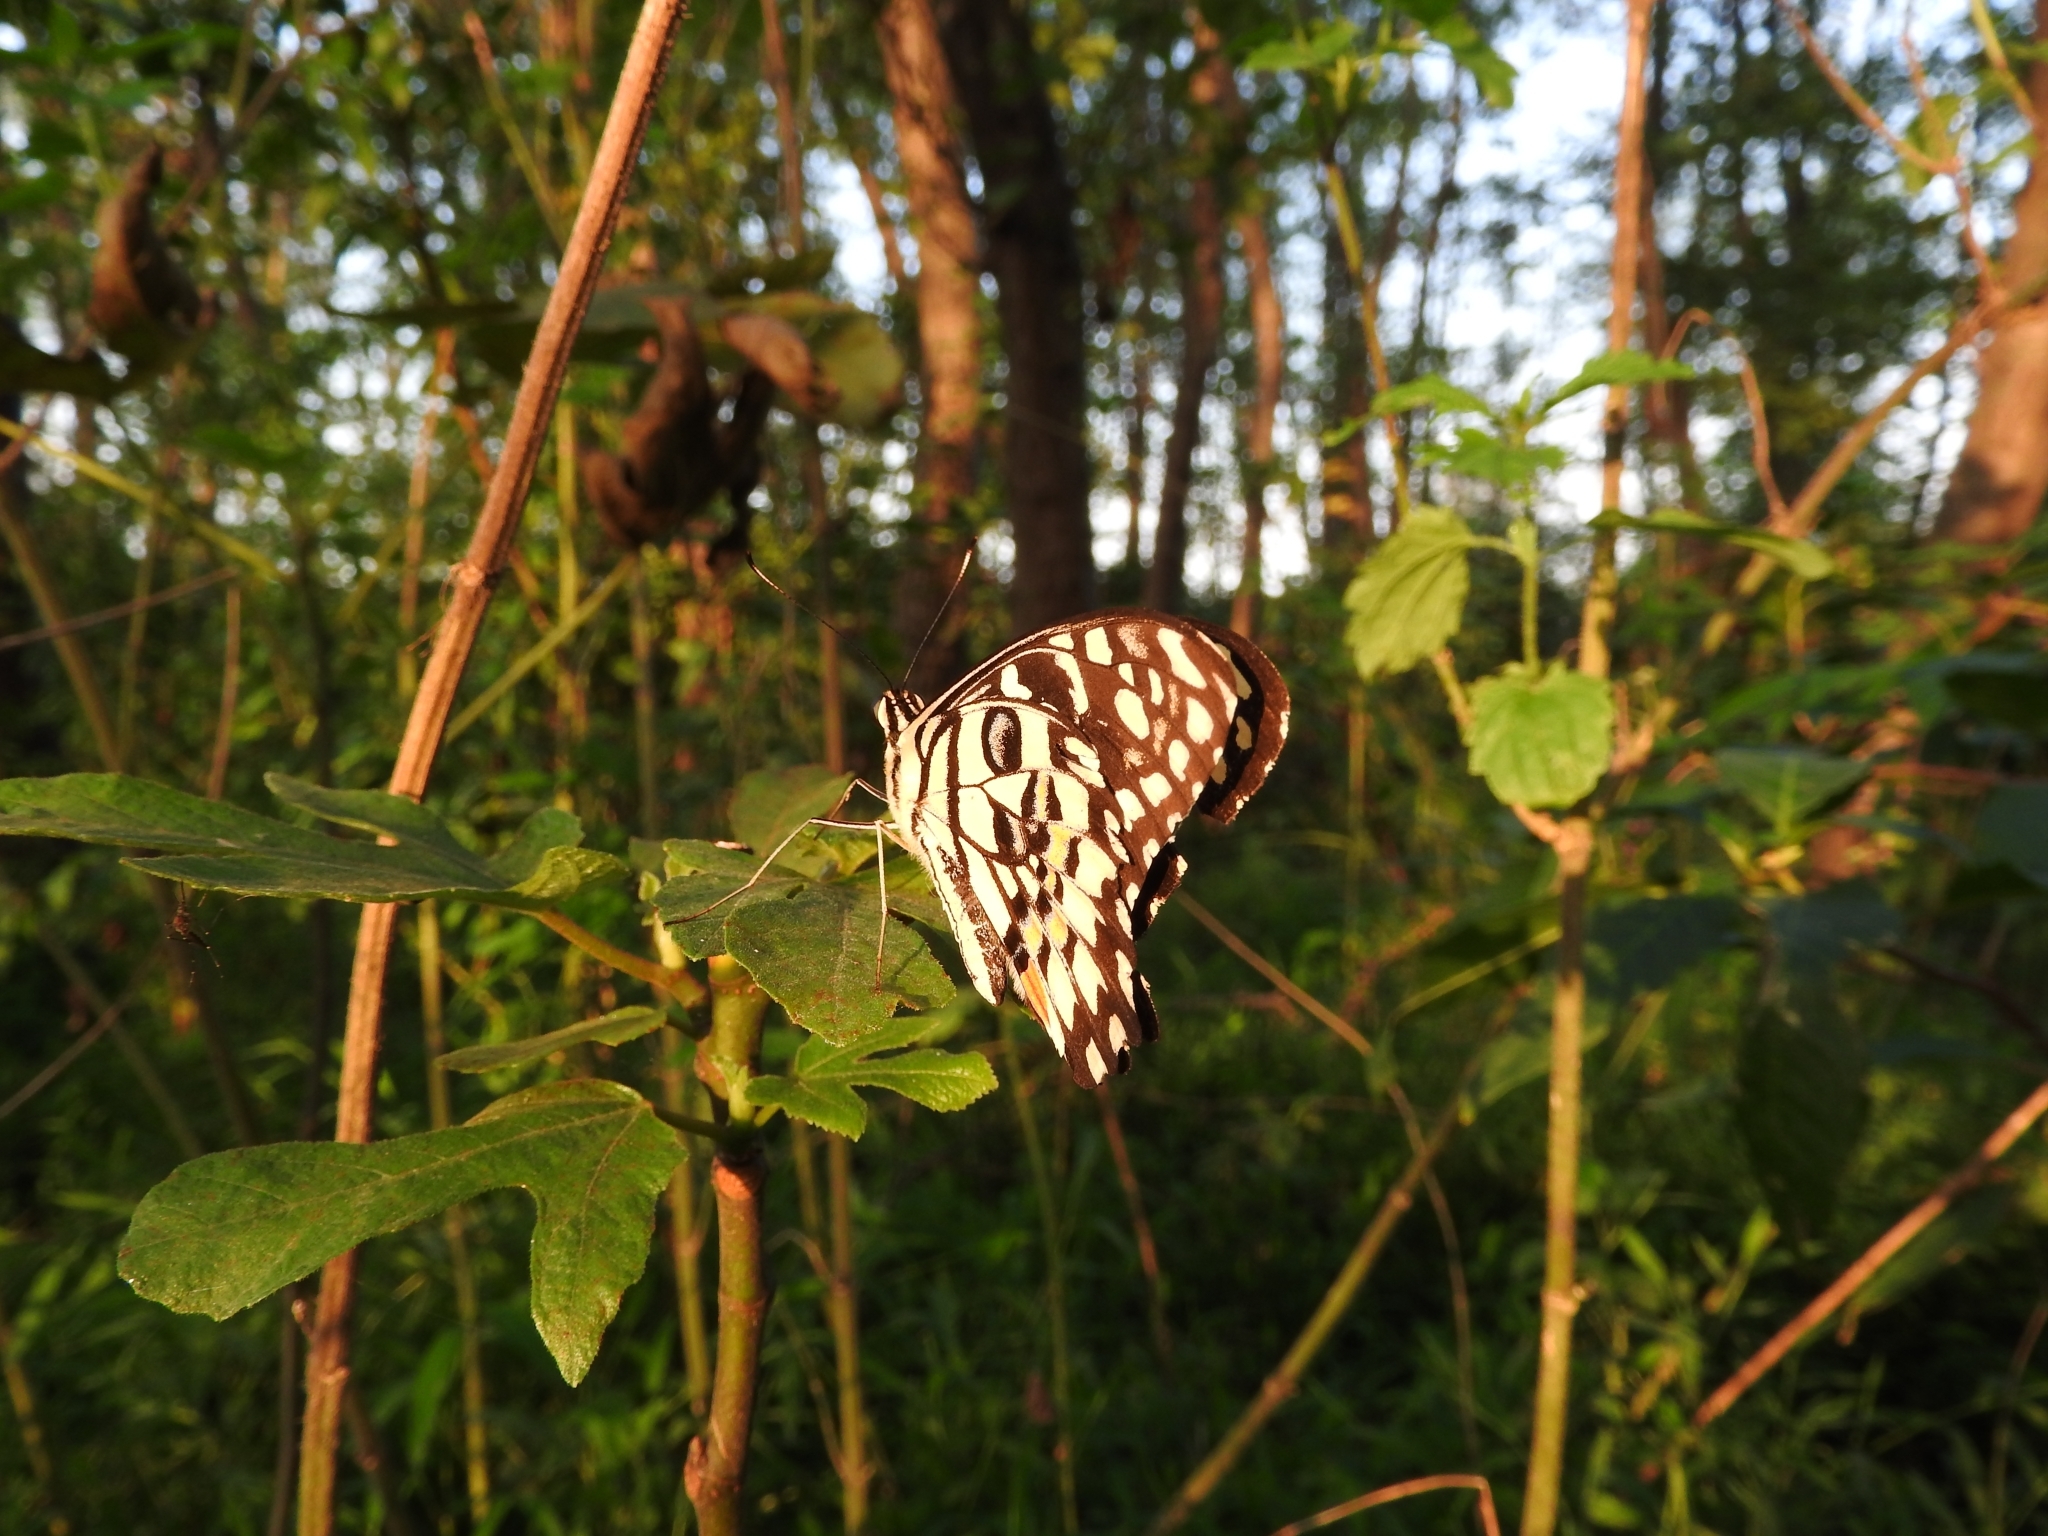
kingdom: Animalia
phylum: Arthropoda
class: Insecta
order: Lepidoptera
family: Papilionidae
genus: Papilio
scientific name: Papilio demoleus
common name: Lime butterfly
